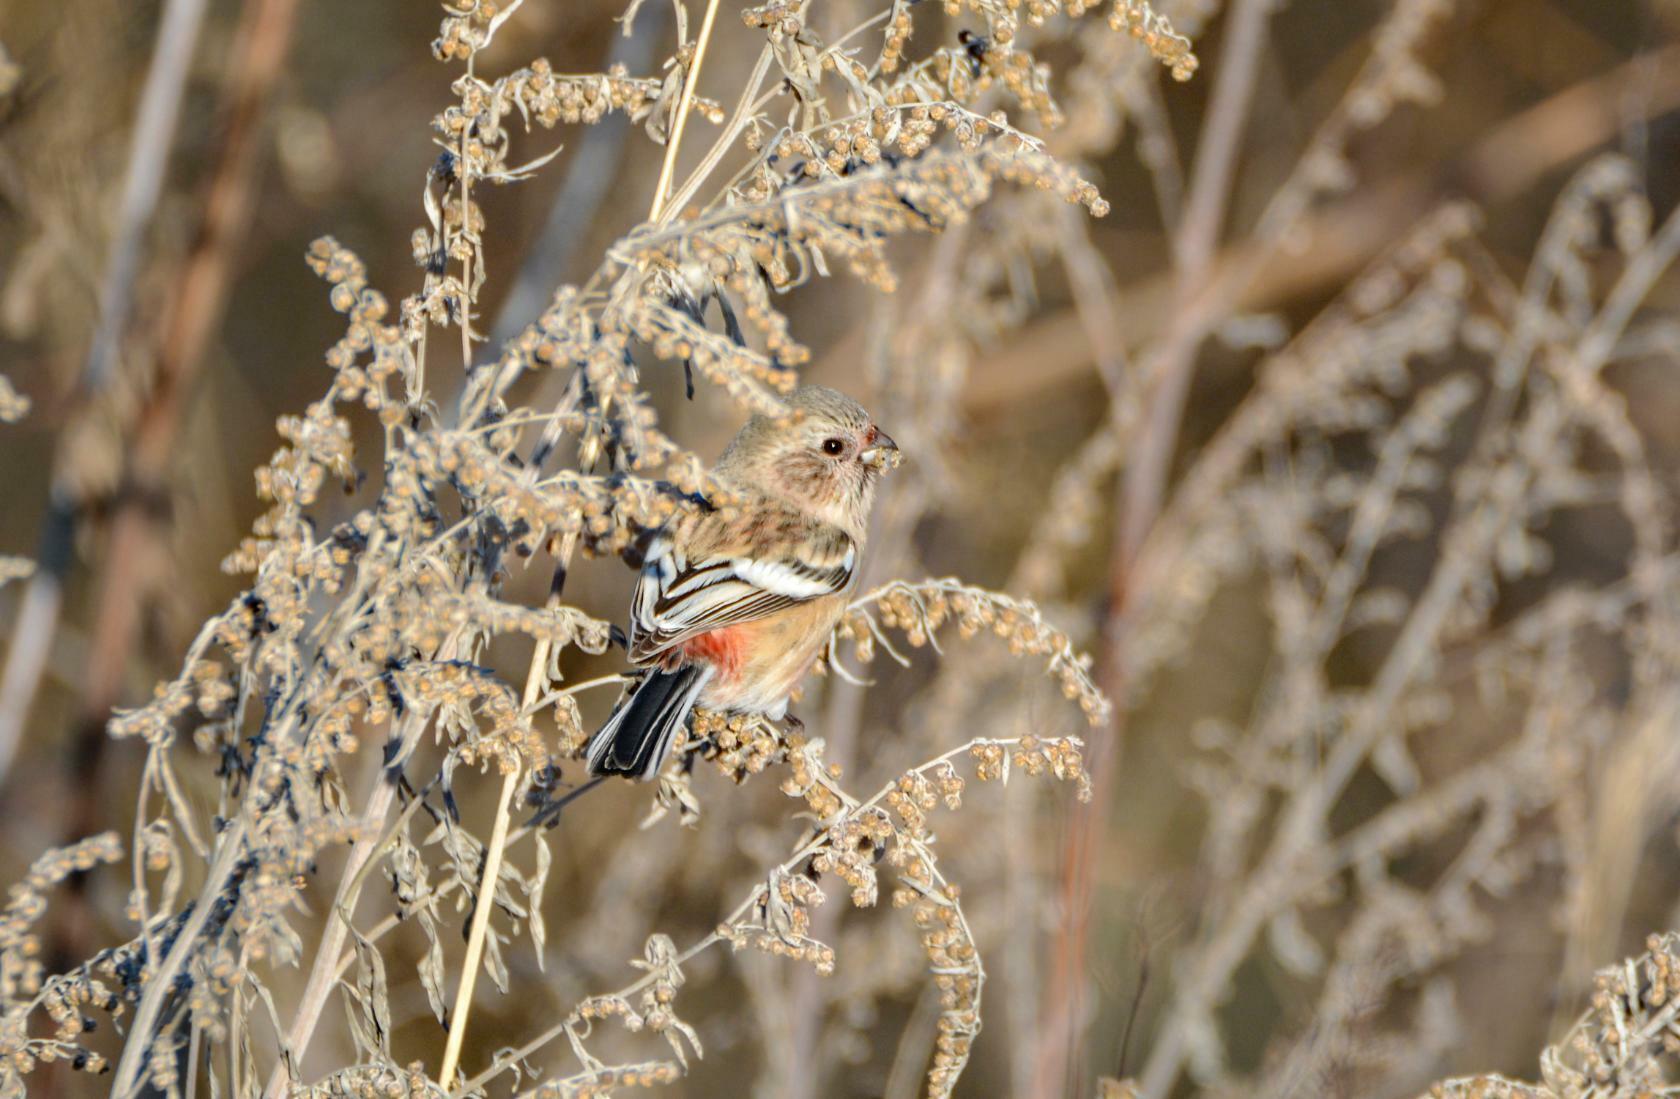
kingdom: Animalia
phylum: Chordata
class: Aves
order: Passeriformes
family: Fringillidae
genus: Carpodacus
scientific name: Carpodacus sibiricus
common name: Long-tailed rosefinch
